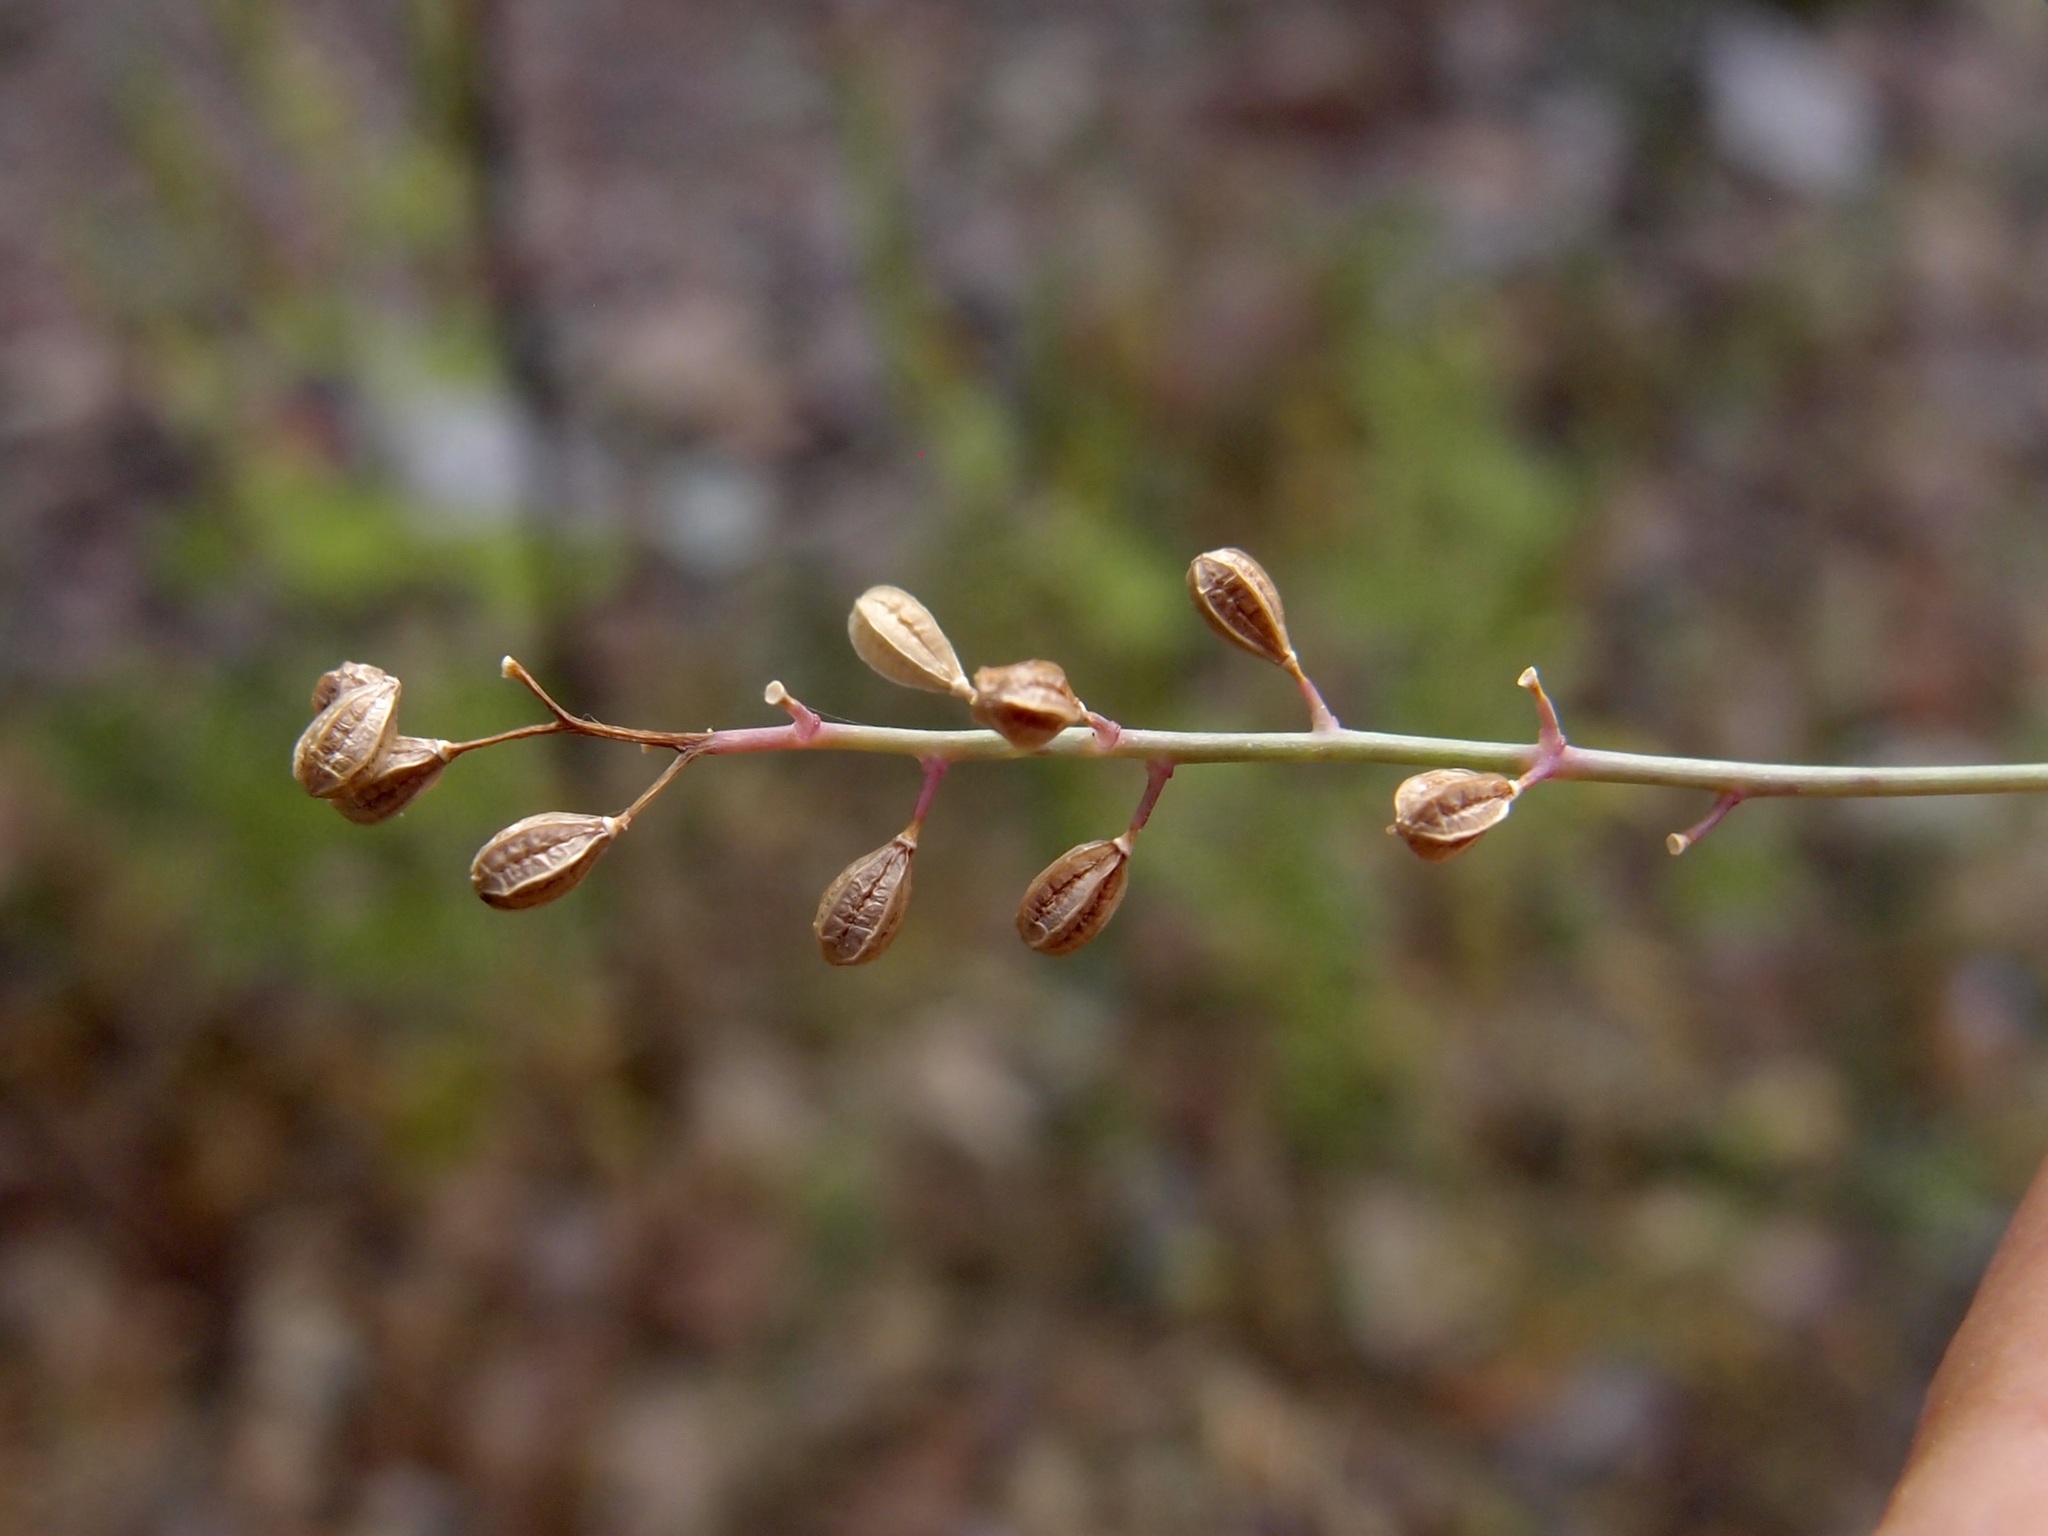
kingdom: Plantae
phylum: Tracheophyta
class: Magnoliopsida
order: Caryophyllales
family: Nyctaginaceae
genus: Boerhavia
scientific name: Boerhavia xantii
